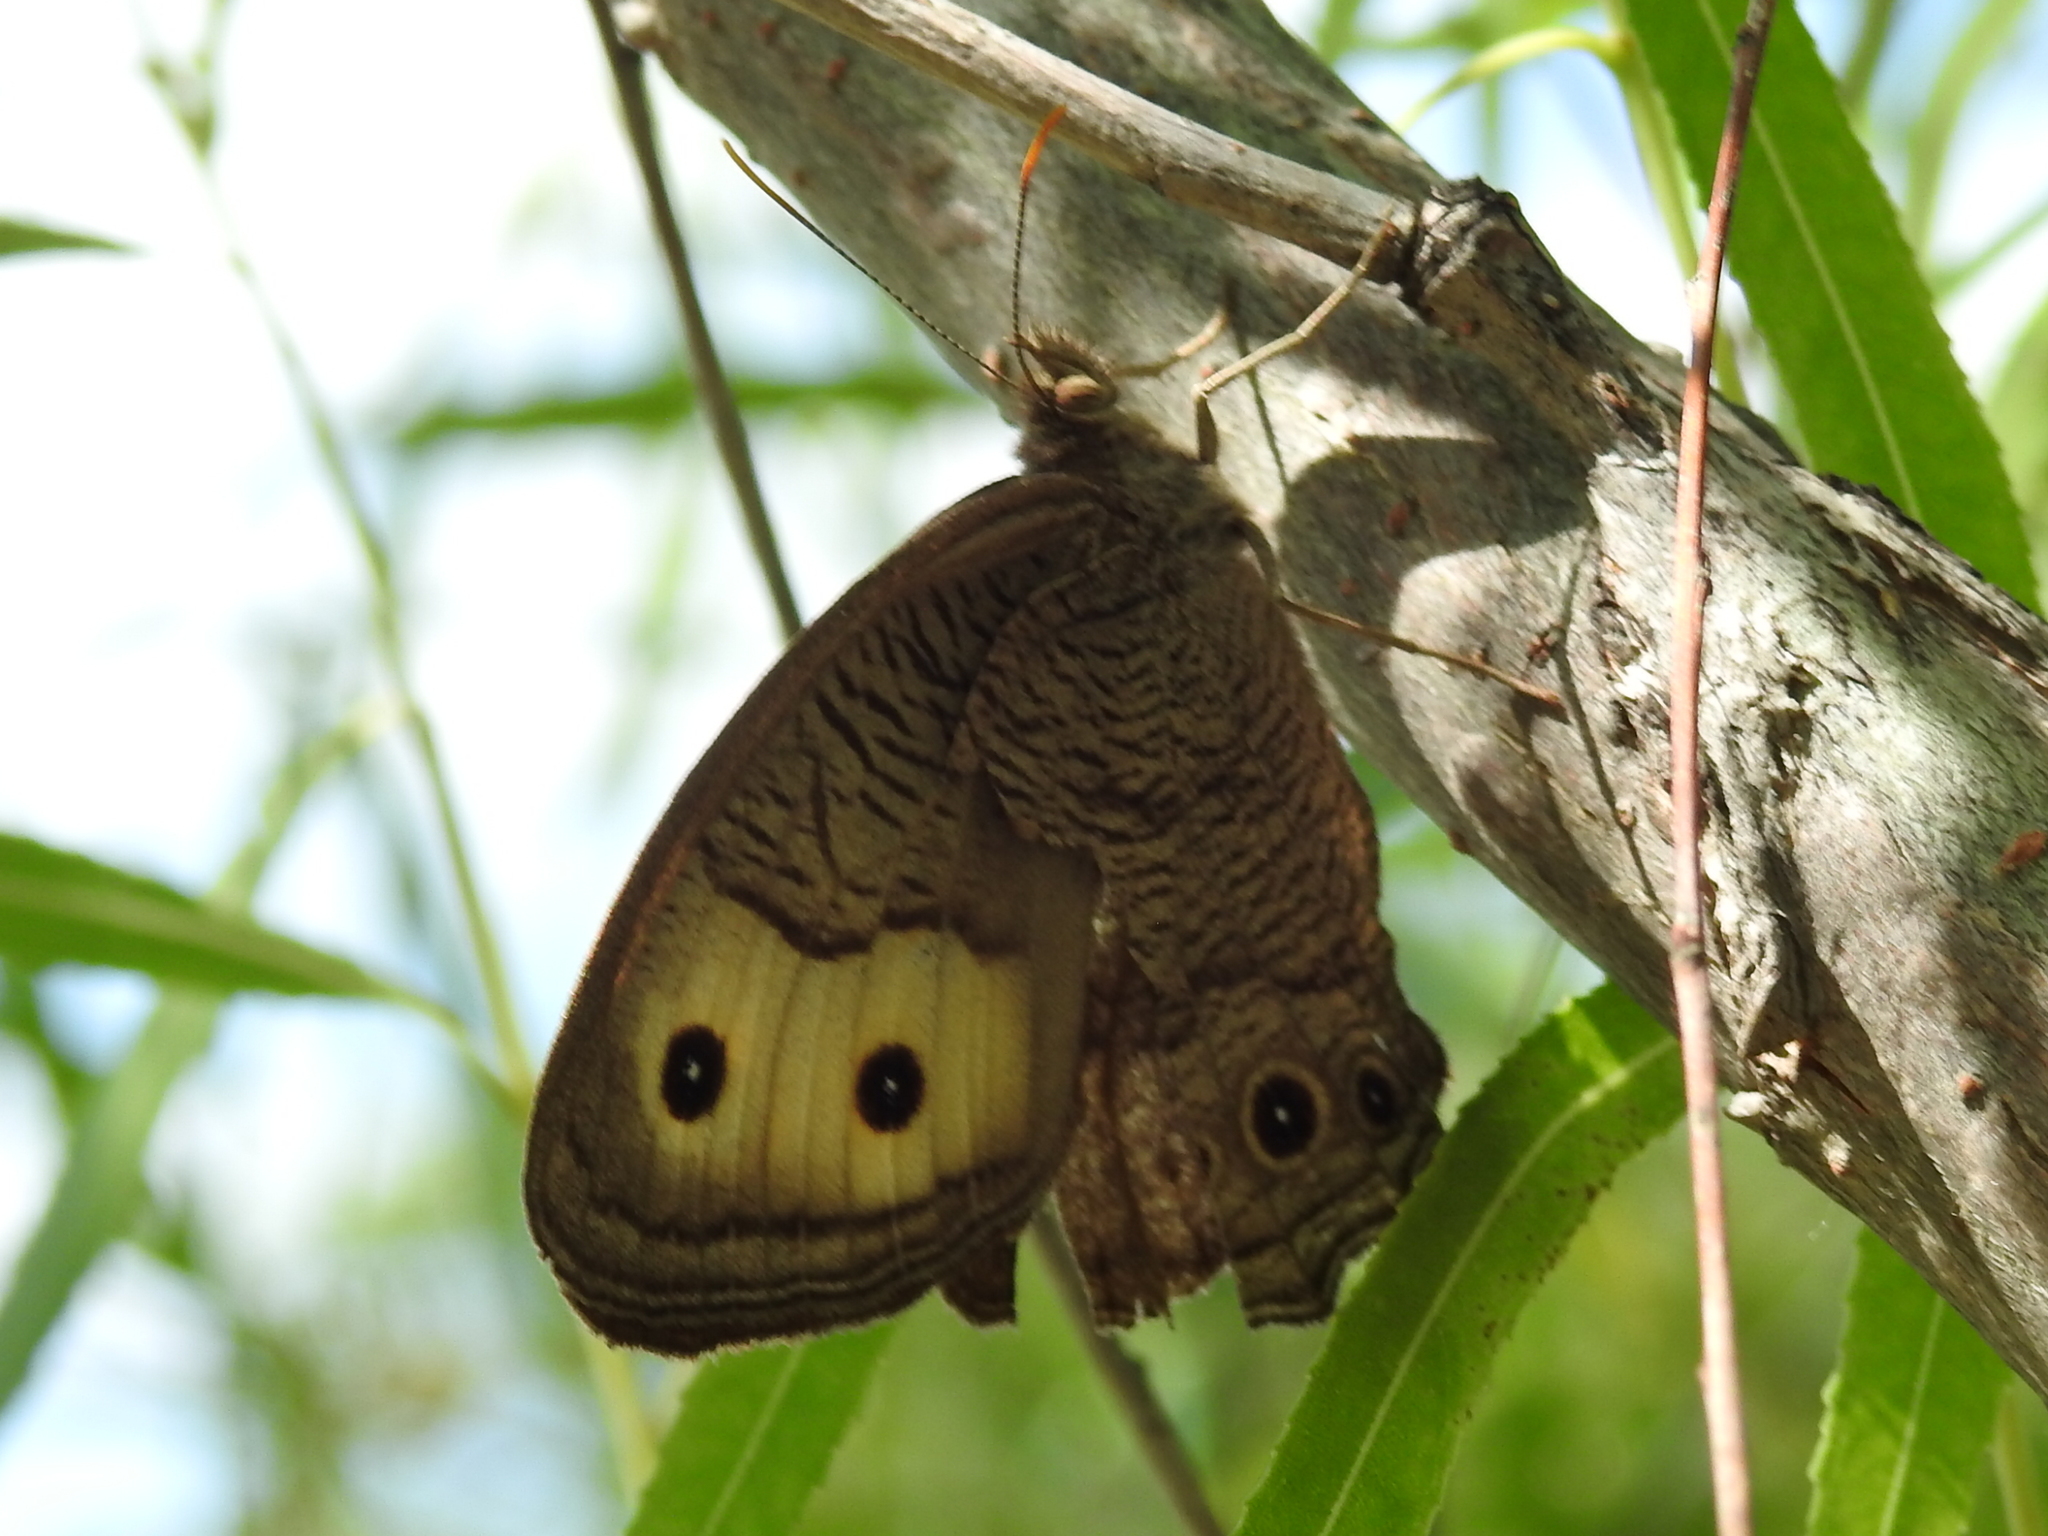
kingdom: Animalia
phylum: Arthropoda
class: Insecta
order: Lepidoptera
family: Nymphalidae
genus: Cercyonis
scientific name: Cercyonis pegala
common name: Common wood-nymph
